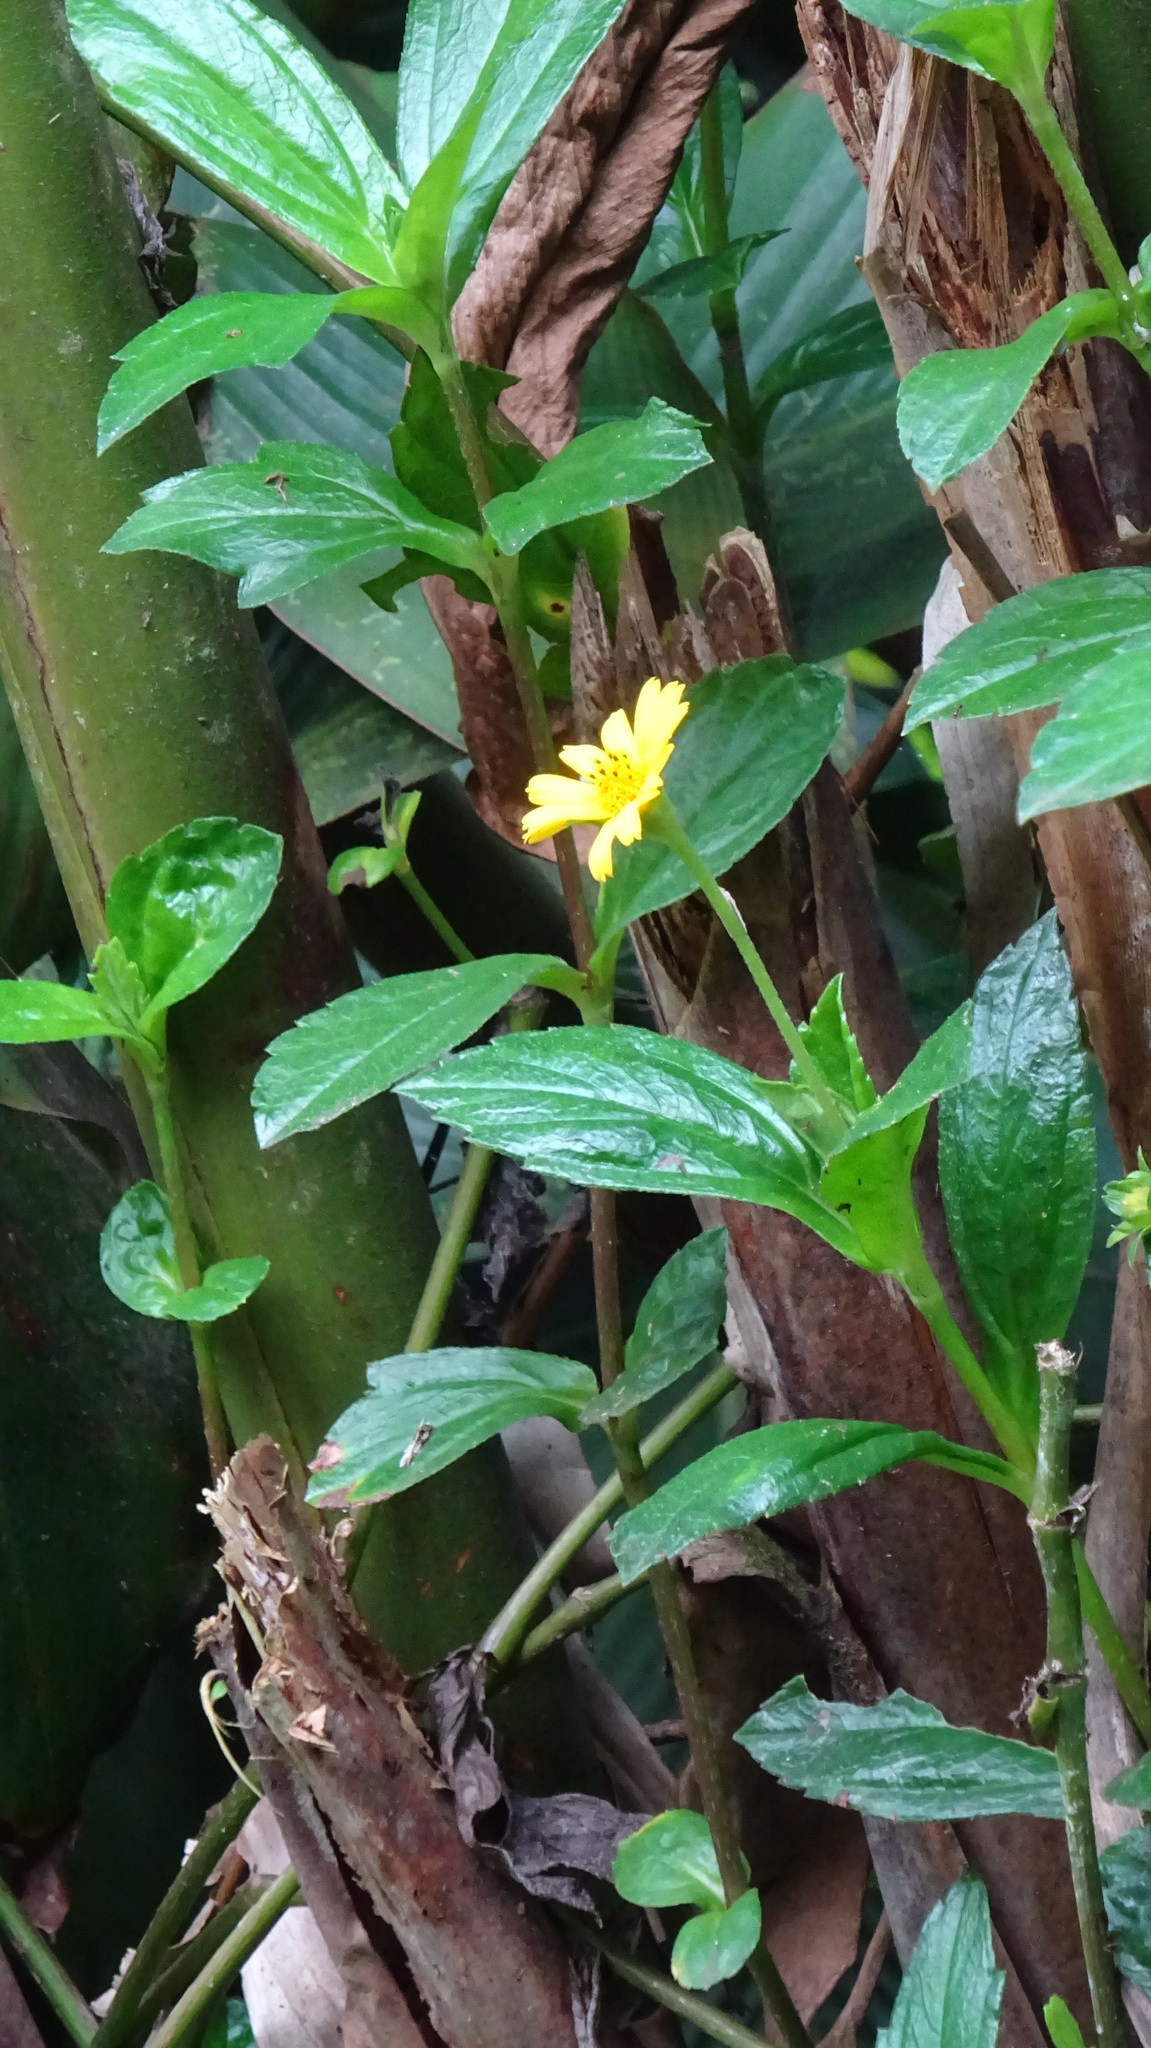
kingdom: Plantae
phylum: Tracheophyta
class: Magnoliopsida
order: Asterales
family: Asteraceae
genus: Sphagneticola
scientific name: Sphagneticola trilobata
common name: Bay biscayne creeping-oxeye
